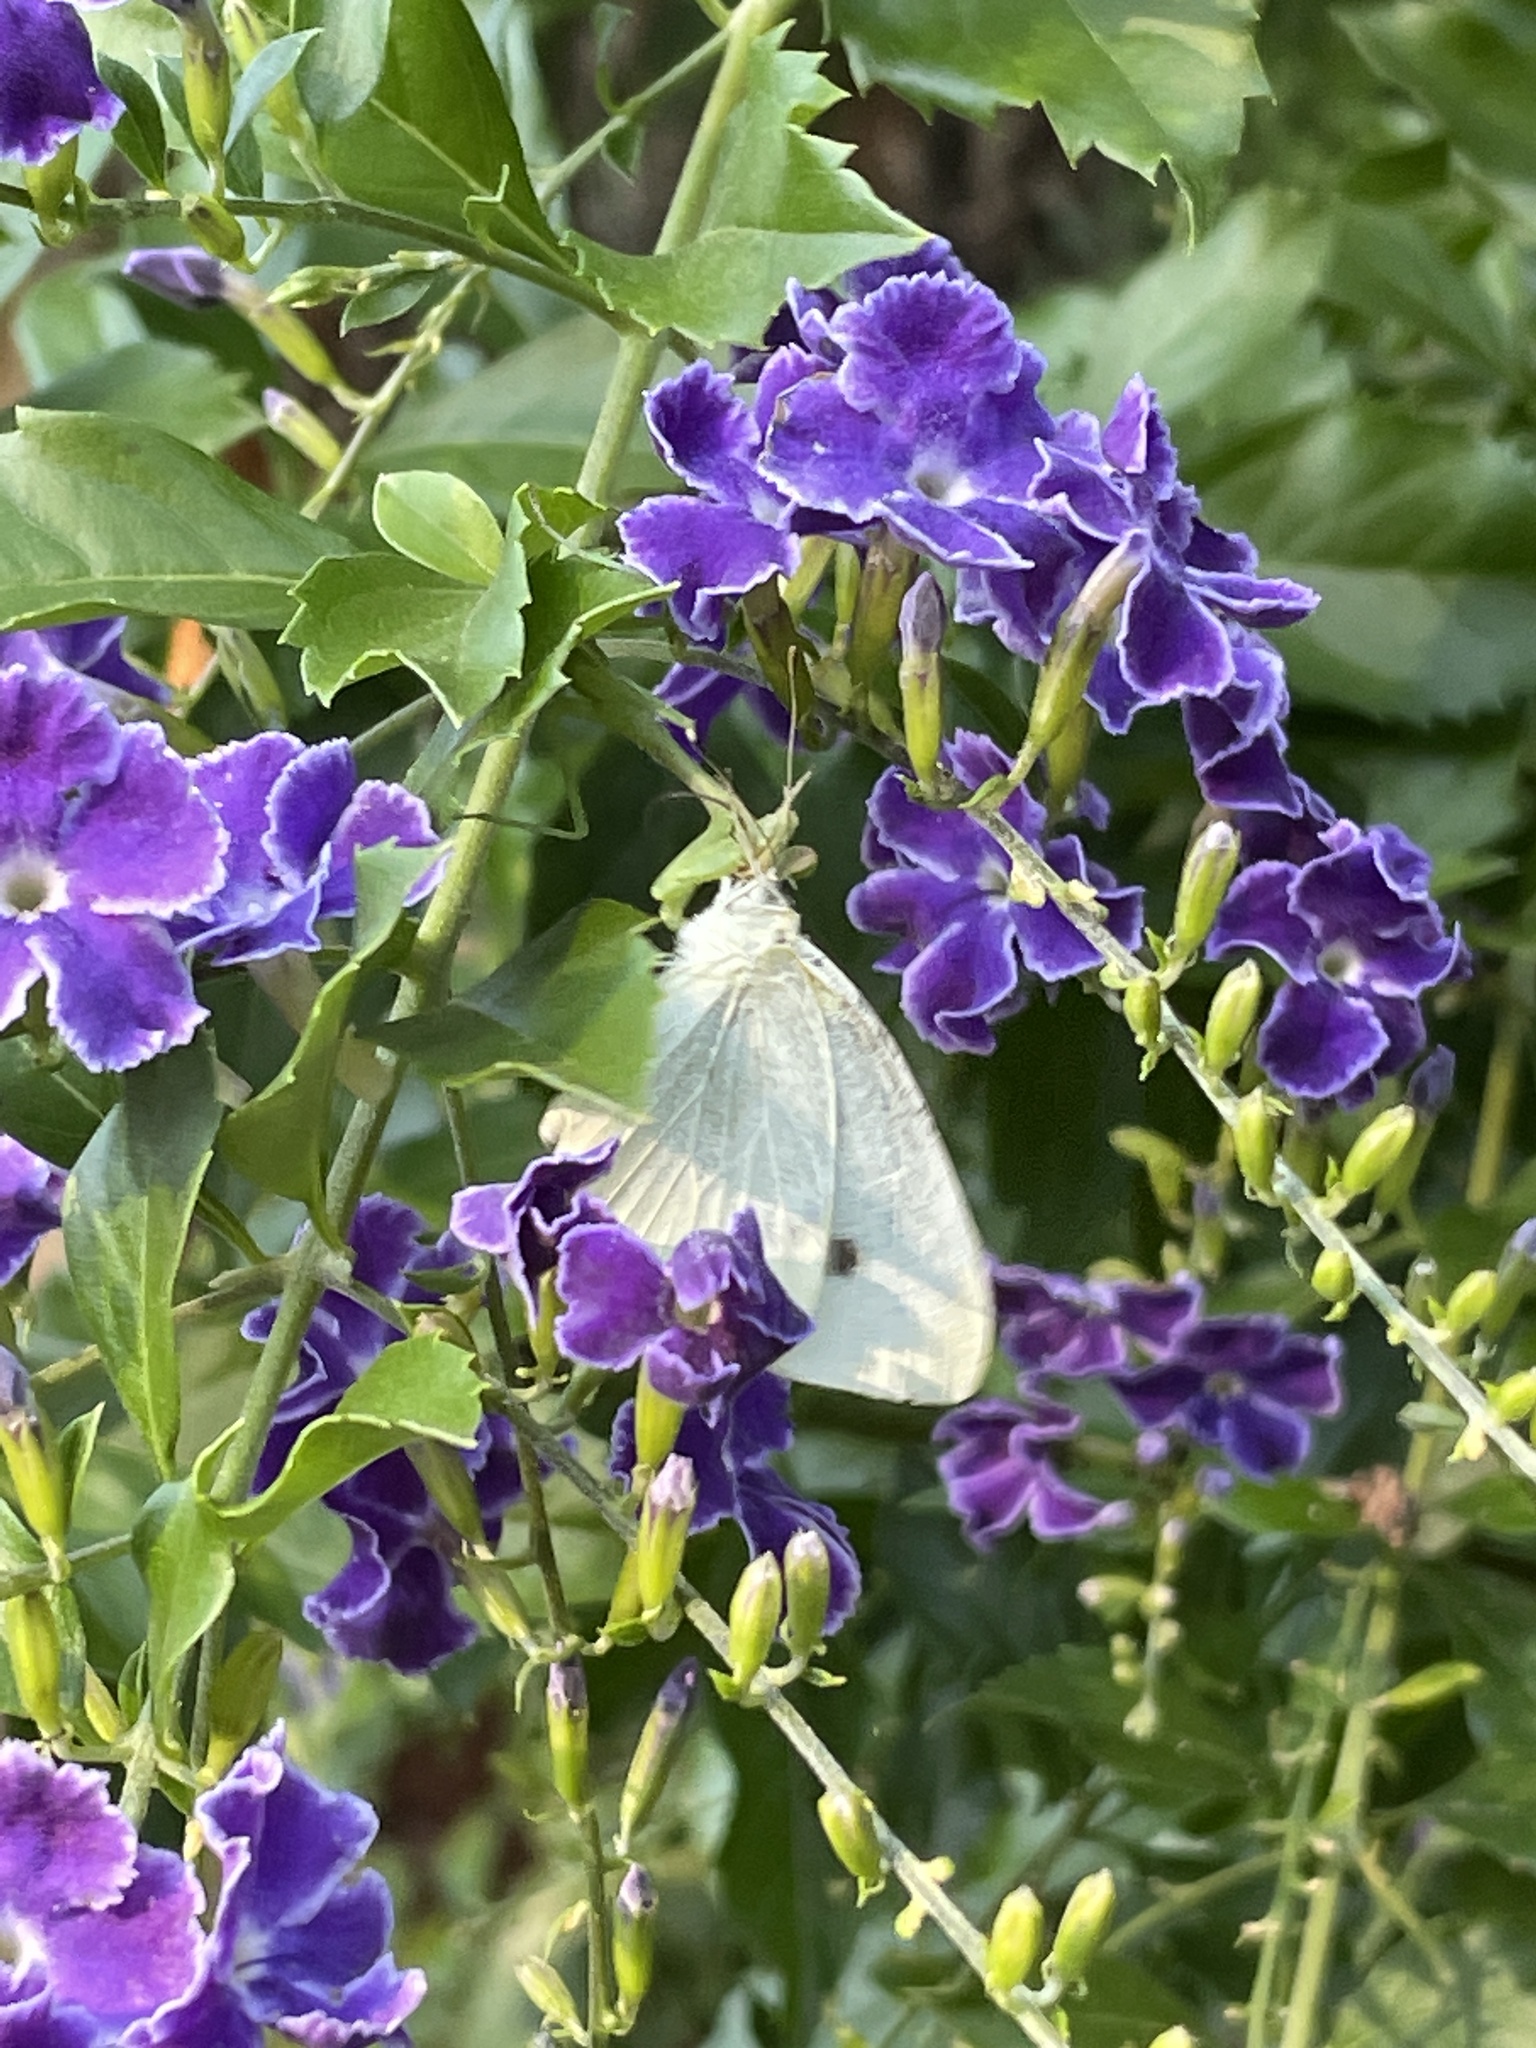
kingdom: Animalia
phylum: Arthropoda
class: Insecta
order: Lepidoptera
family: Pieridae
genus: Pieris
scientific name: Pieris rapae
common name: Small white
